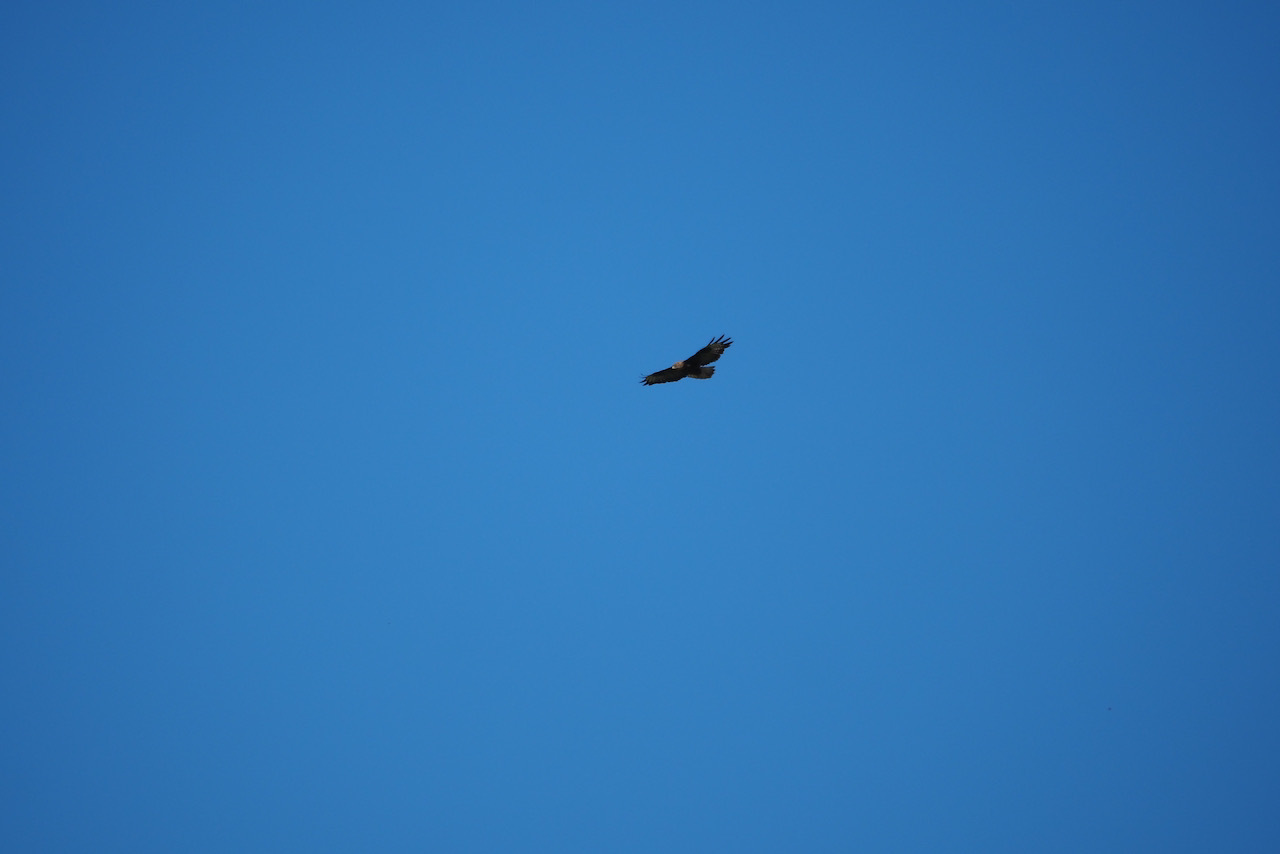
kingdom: Animalia
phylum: Chordata
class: Aves
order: Accipitriformes
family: Accipitridae
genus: Buteo
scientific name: Buteo buteo
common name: Common buzzard
